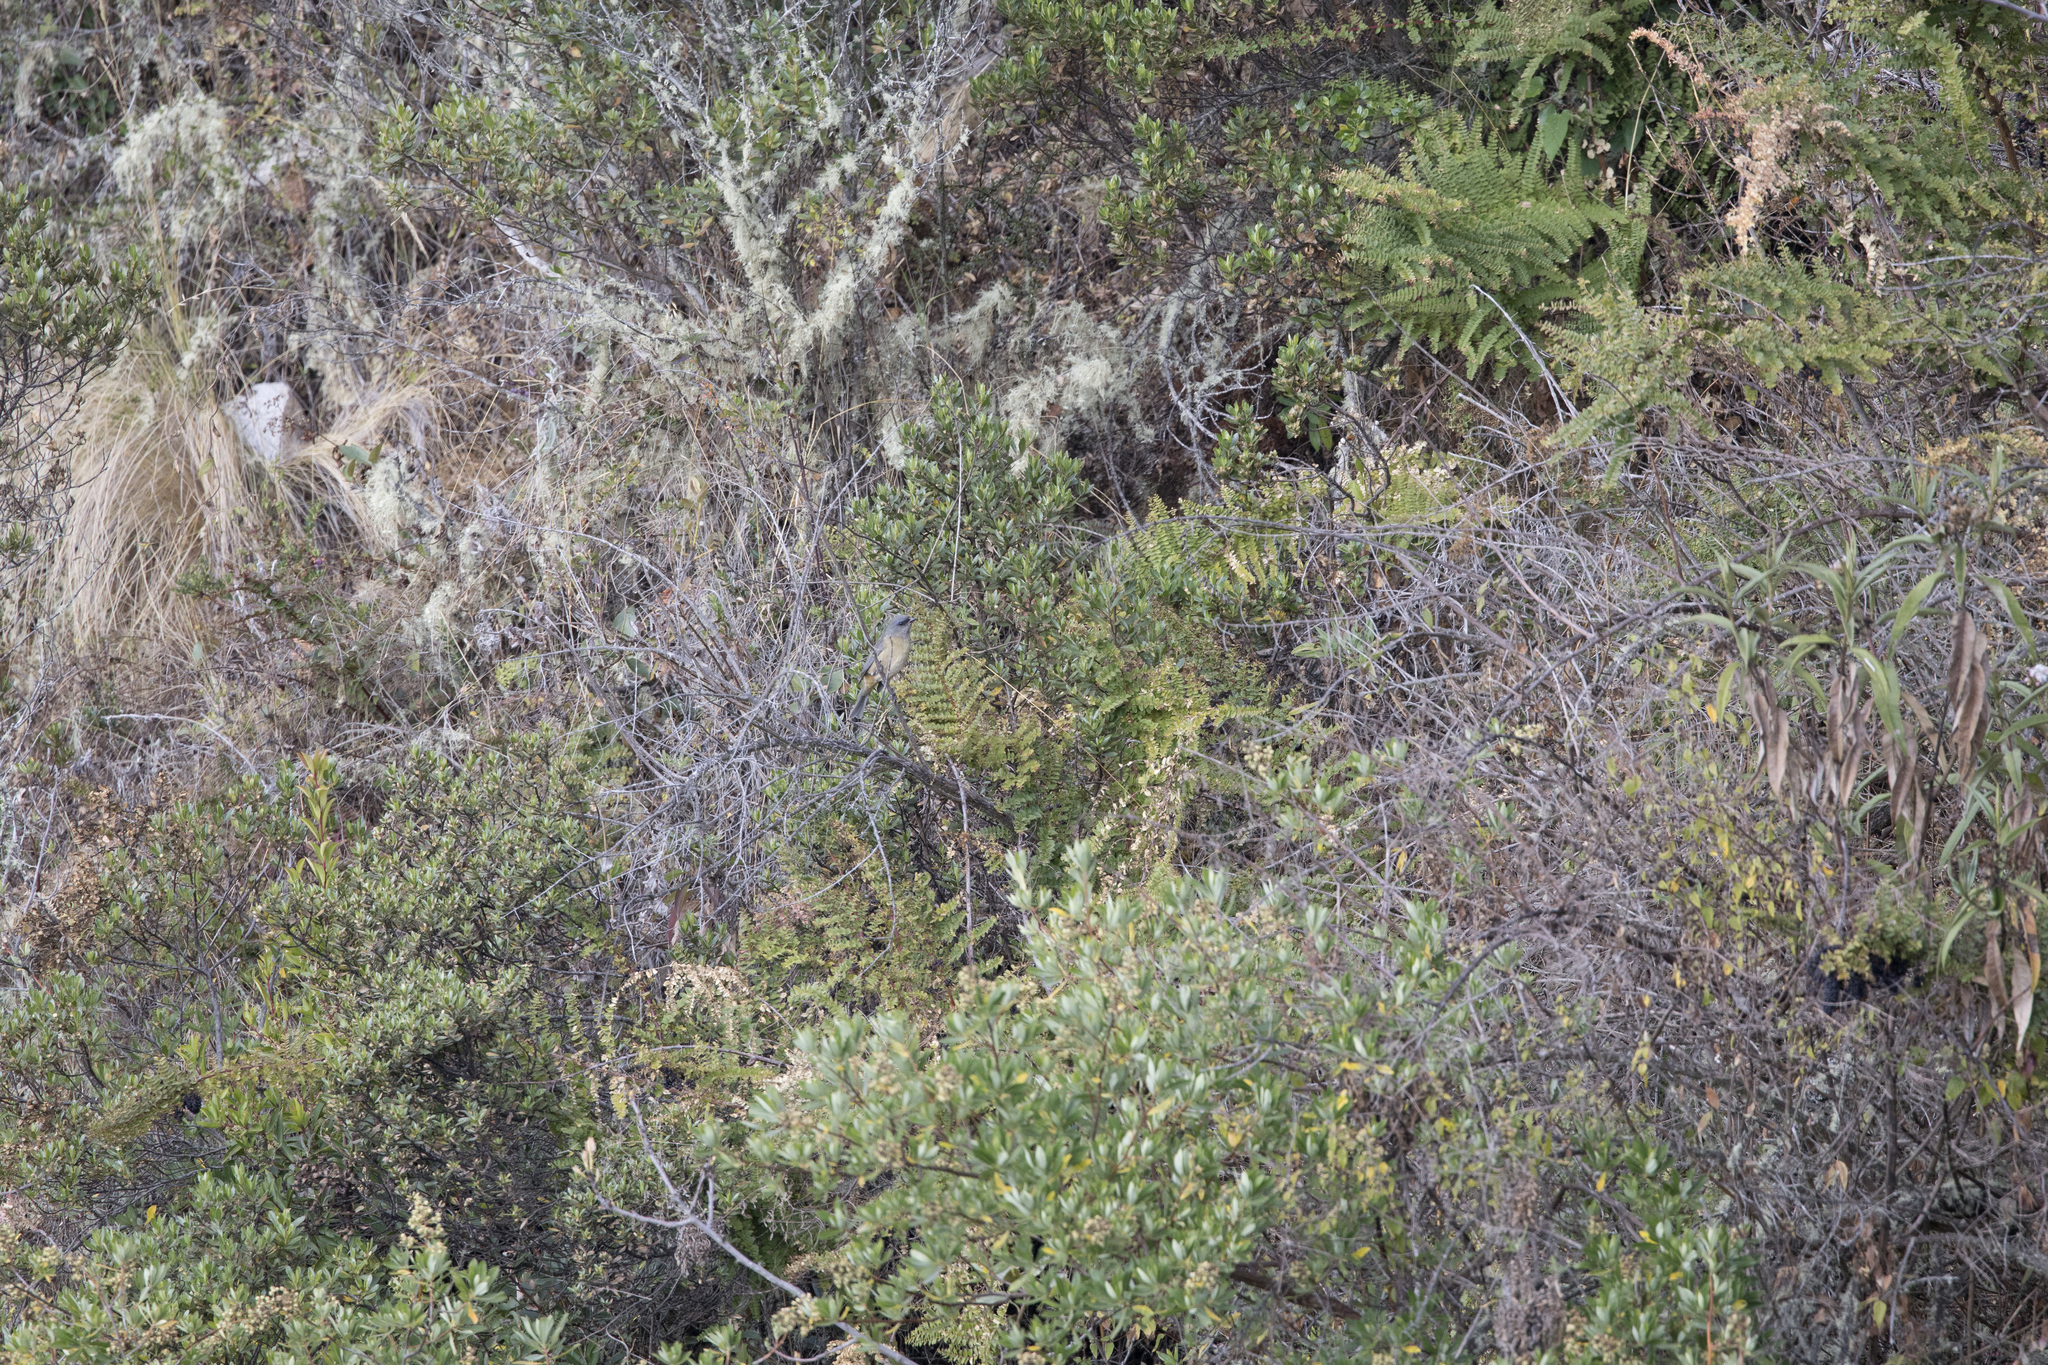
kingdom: Animalia
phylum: Chordata
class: Aves
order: Passeriformes
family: Thraupidae
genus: Rauenia
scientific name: Rauenia bonariensis
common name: Blue-and-yellow tanager
